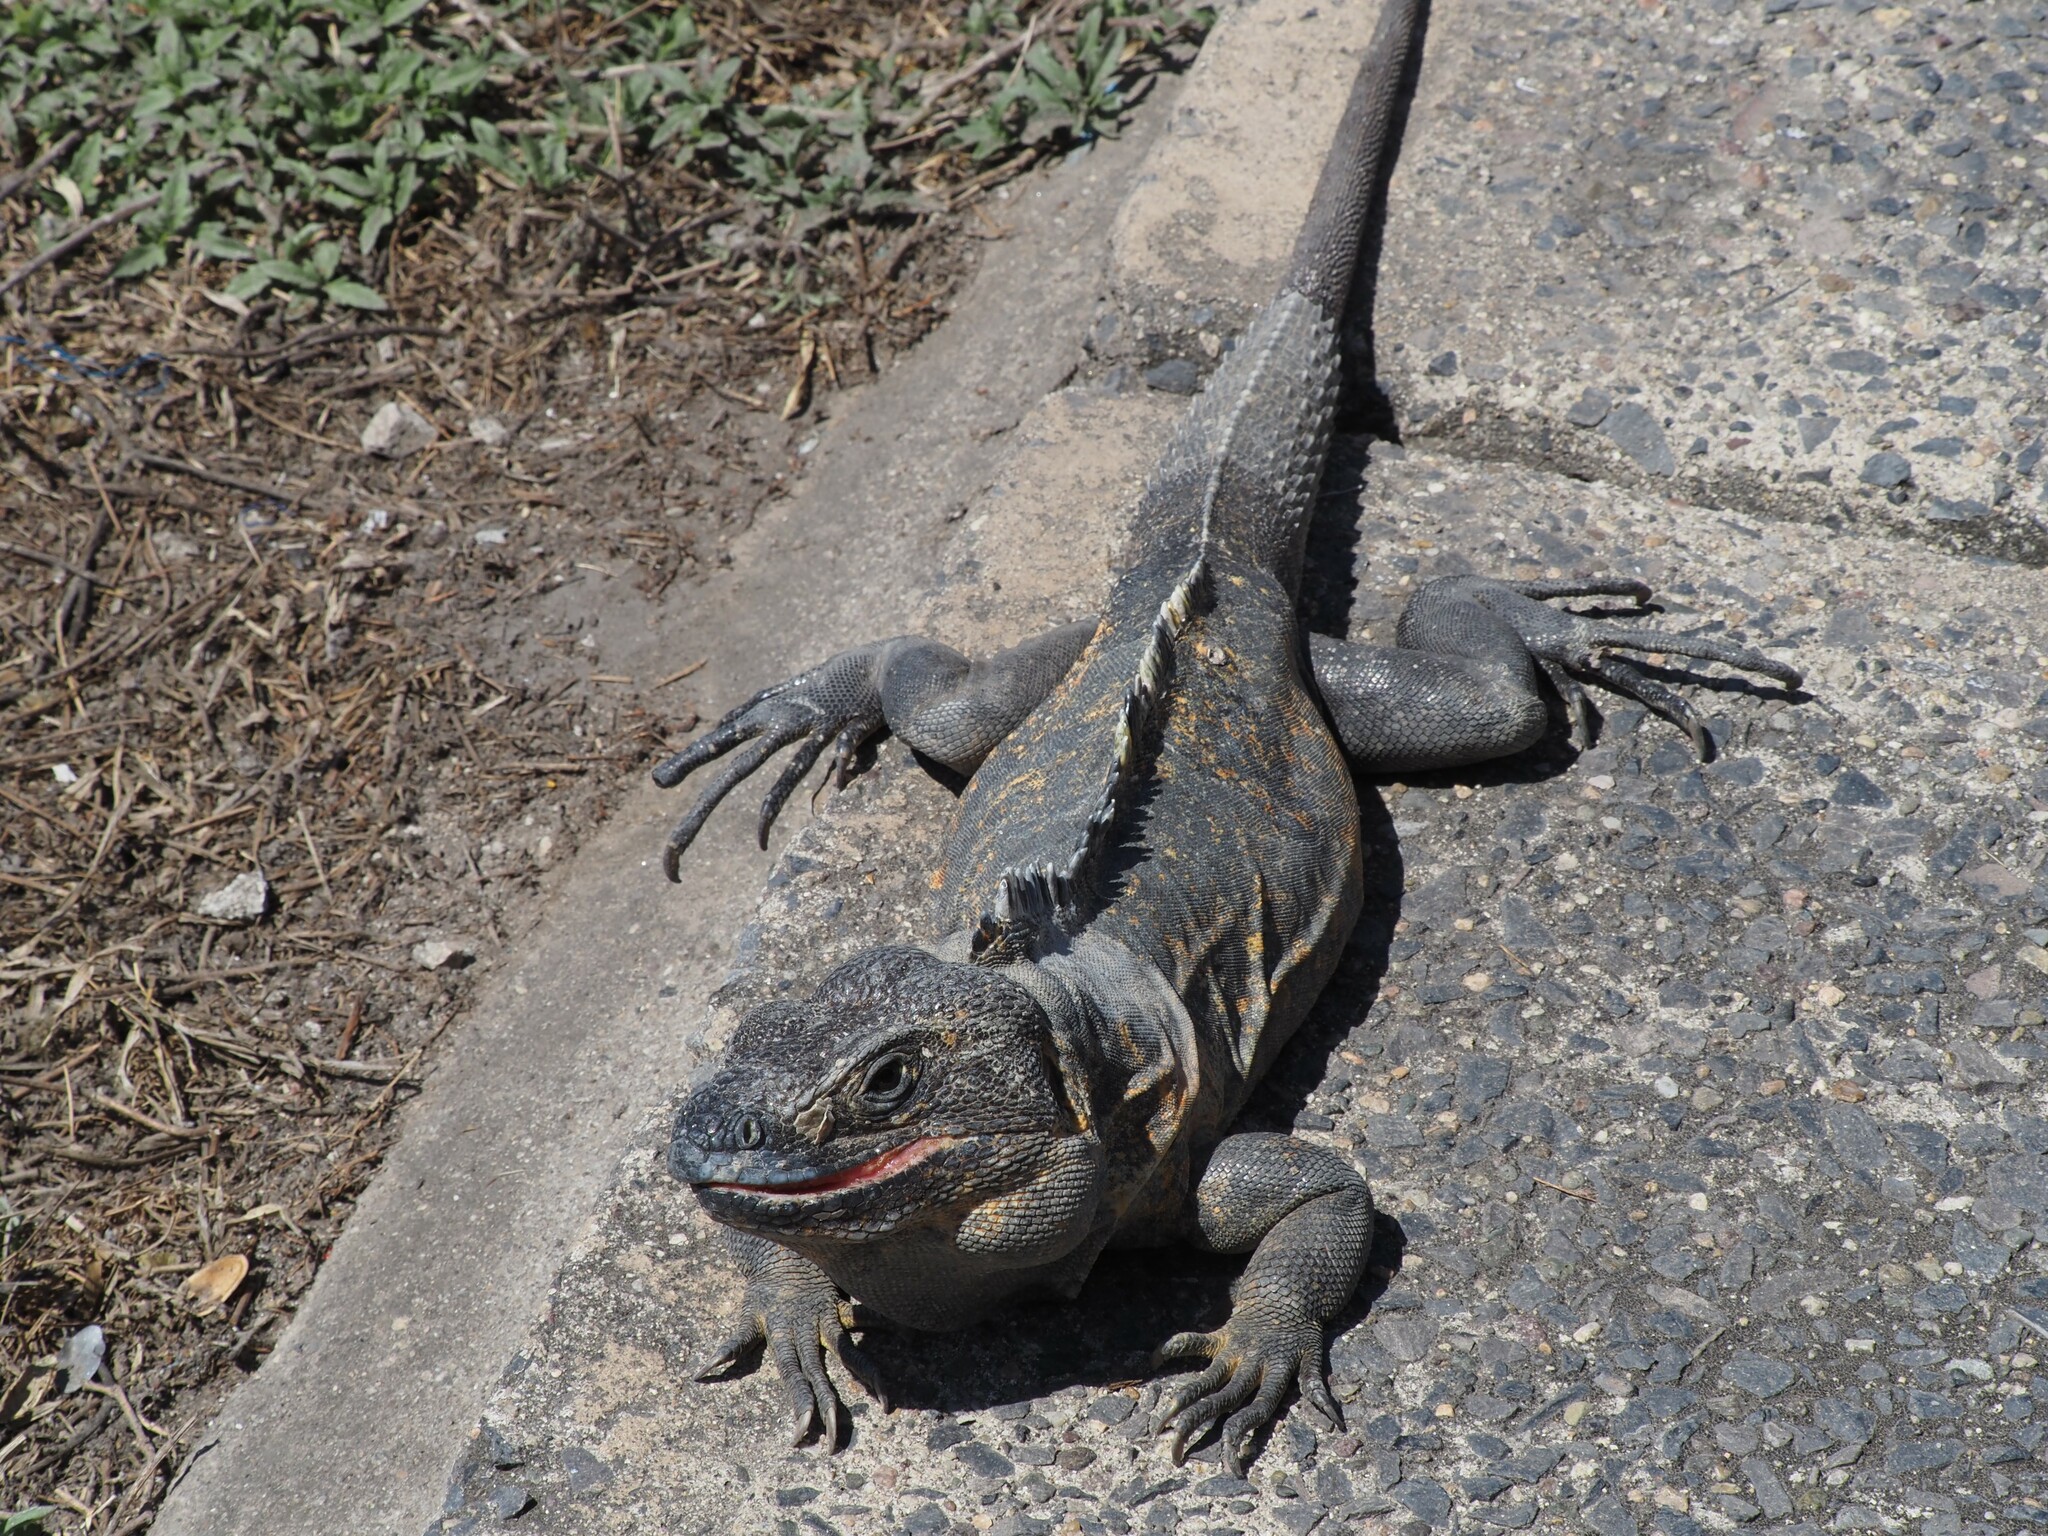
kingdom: Animalia
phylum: Chordata
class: Squamata
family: Iguanidae
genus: Ctenosaura
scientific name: Ctenosaura pectinata
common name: Guerreran spiny-tailed iguana
